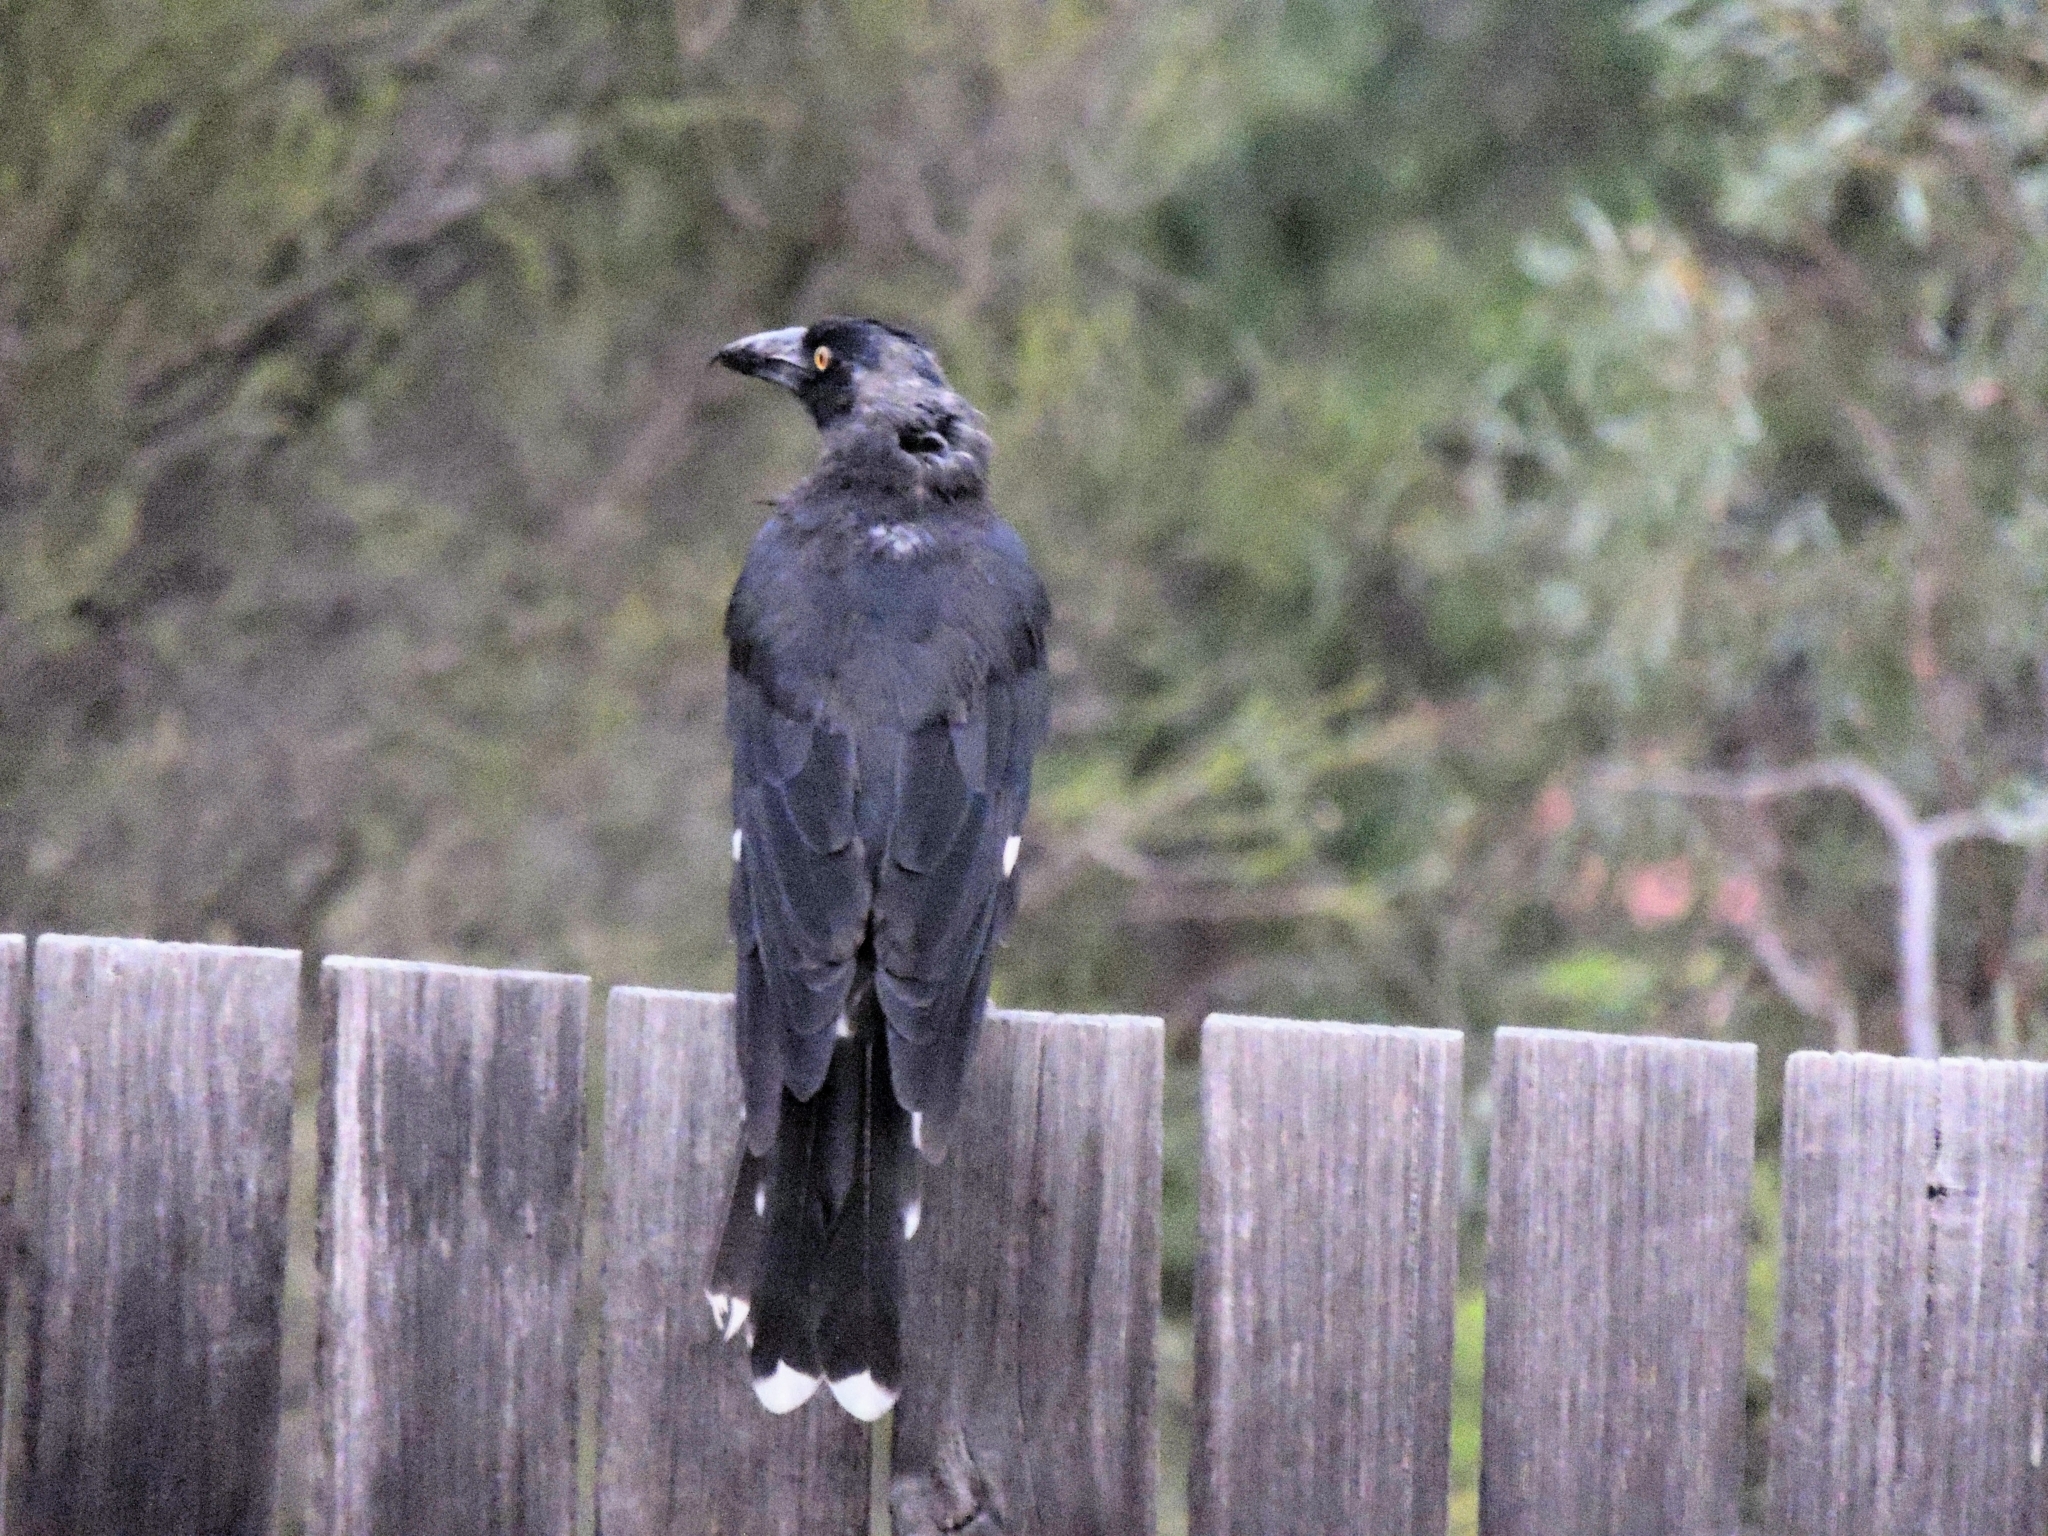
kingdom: Animalia
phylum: Chordata
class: Aves
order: Passeriformes
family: Cracticidae
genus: Strepera
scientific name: Strepera graculina
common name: Pied currawong
